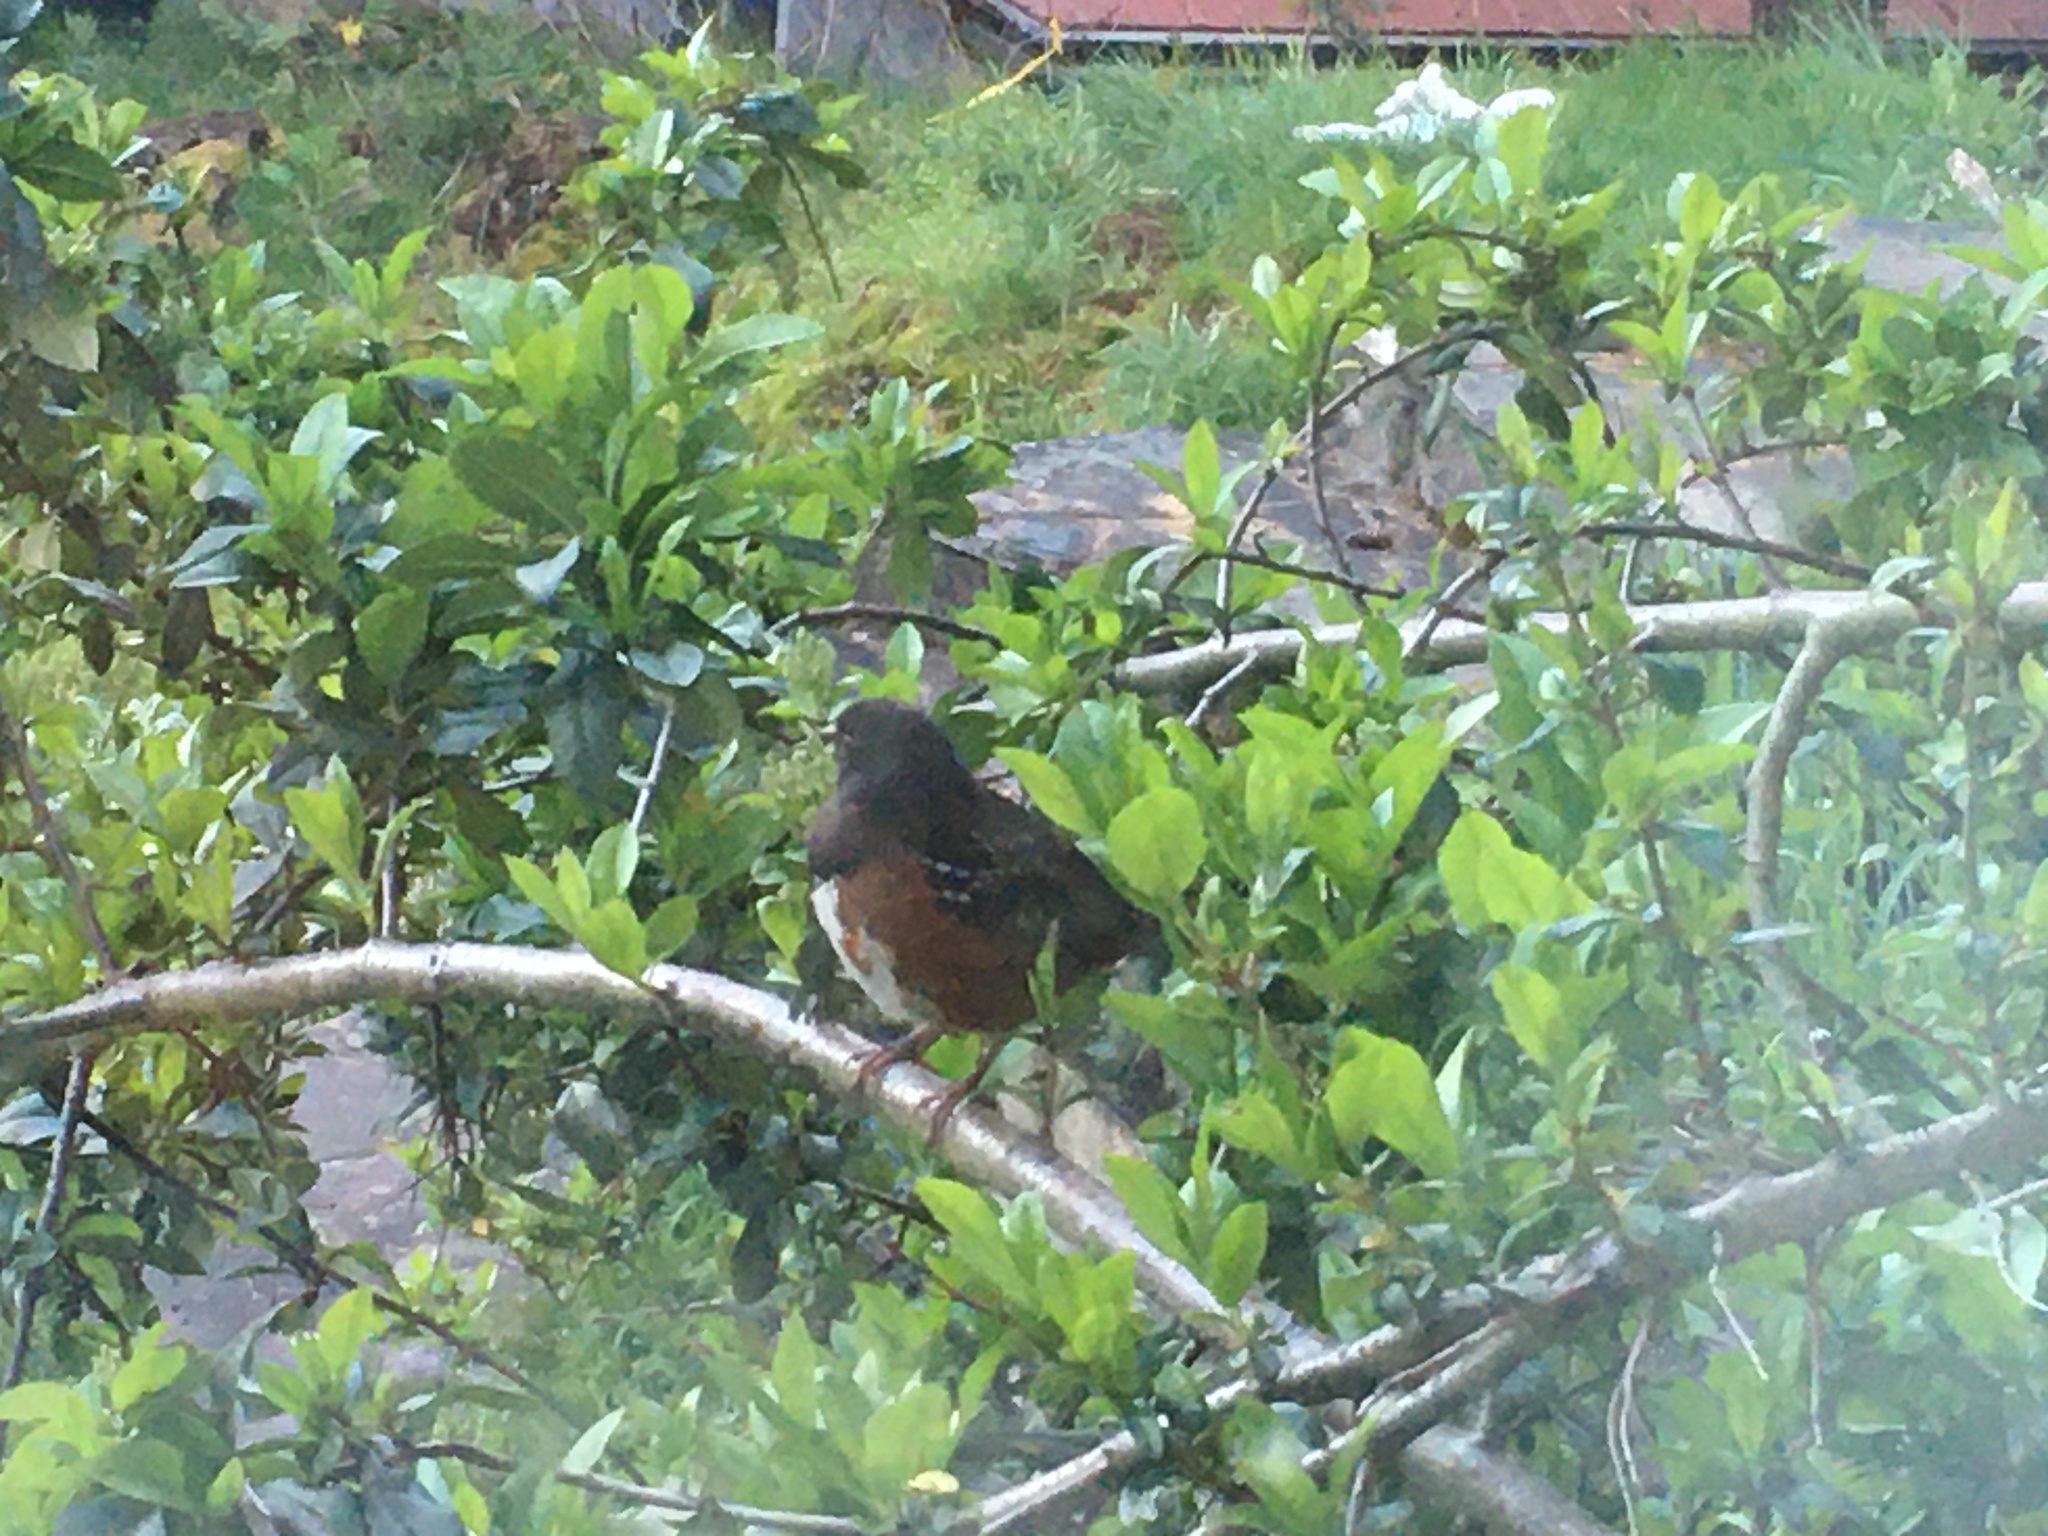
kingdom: Animalia
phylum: Chordata
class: Aves
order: Passeriformes
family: Passerellidae
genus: Pipilo
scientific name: Pipilo maculatus
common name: Spotted towhee
